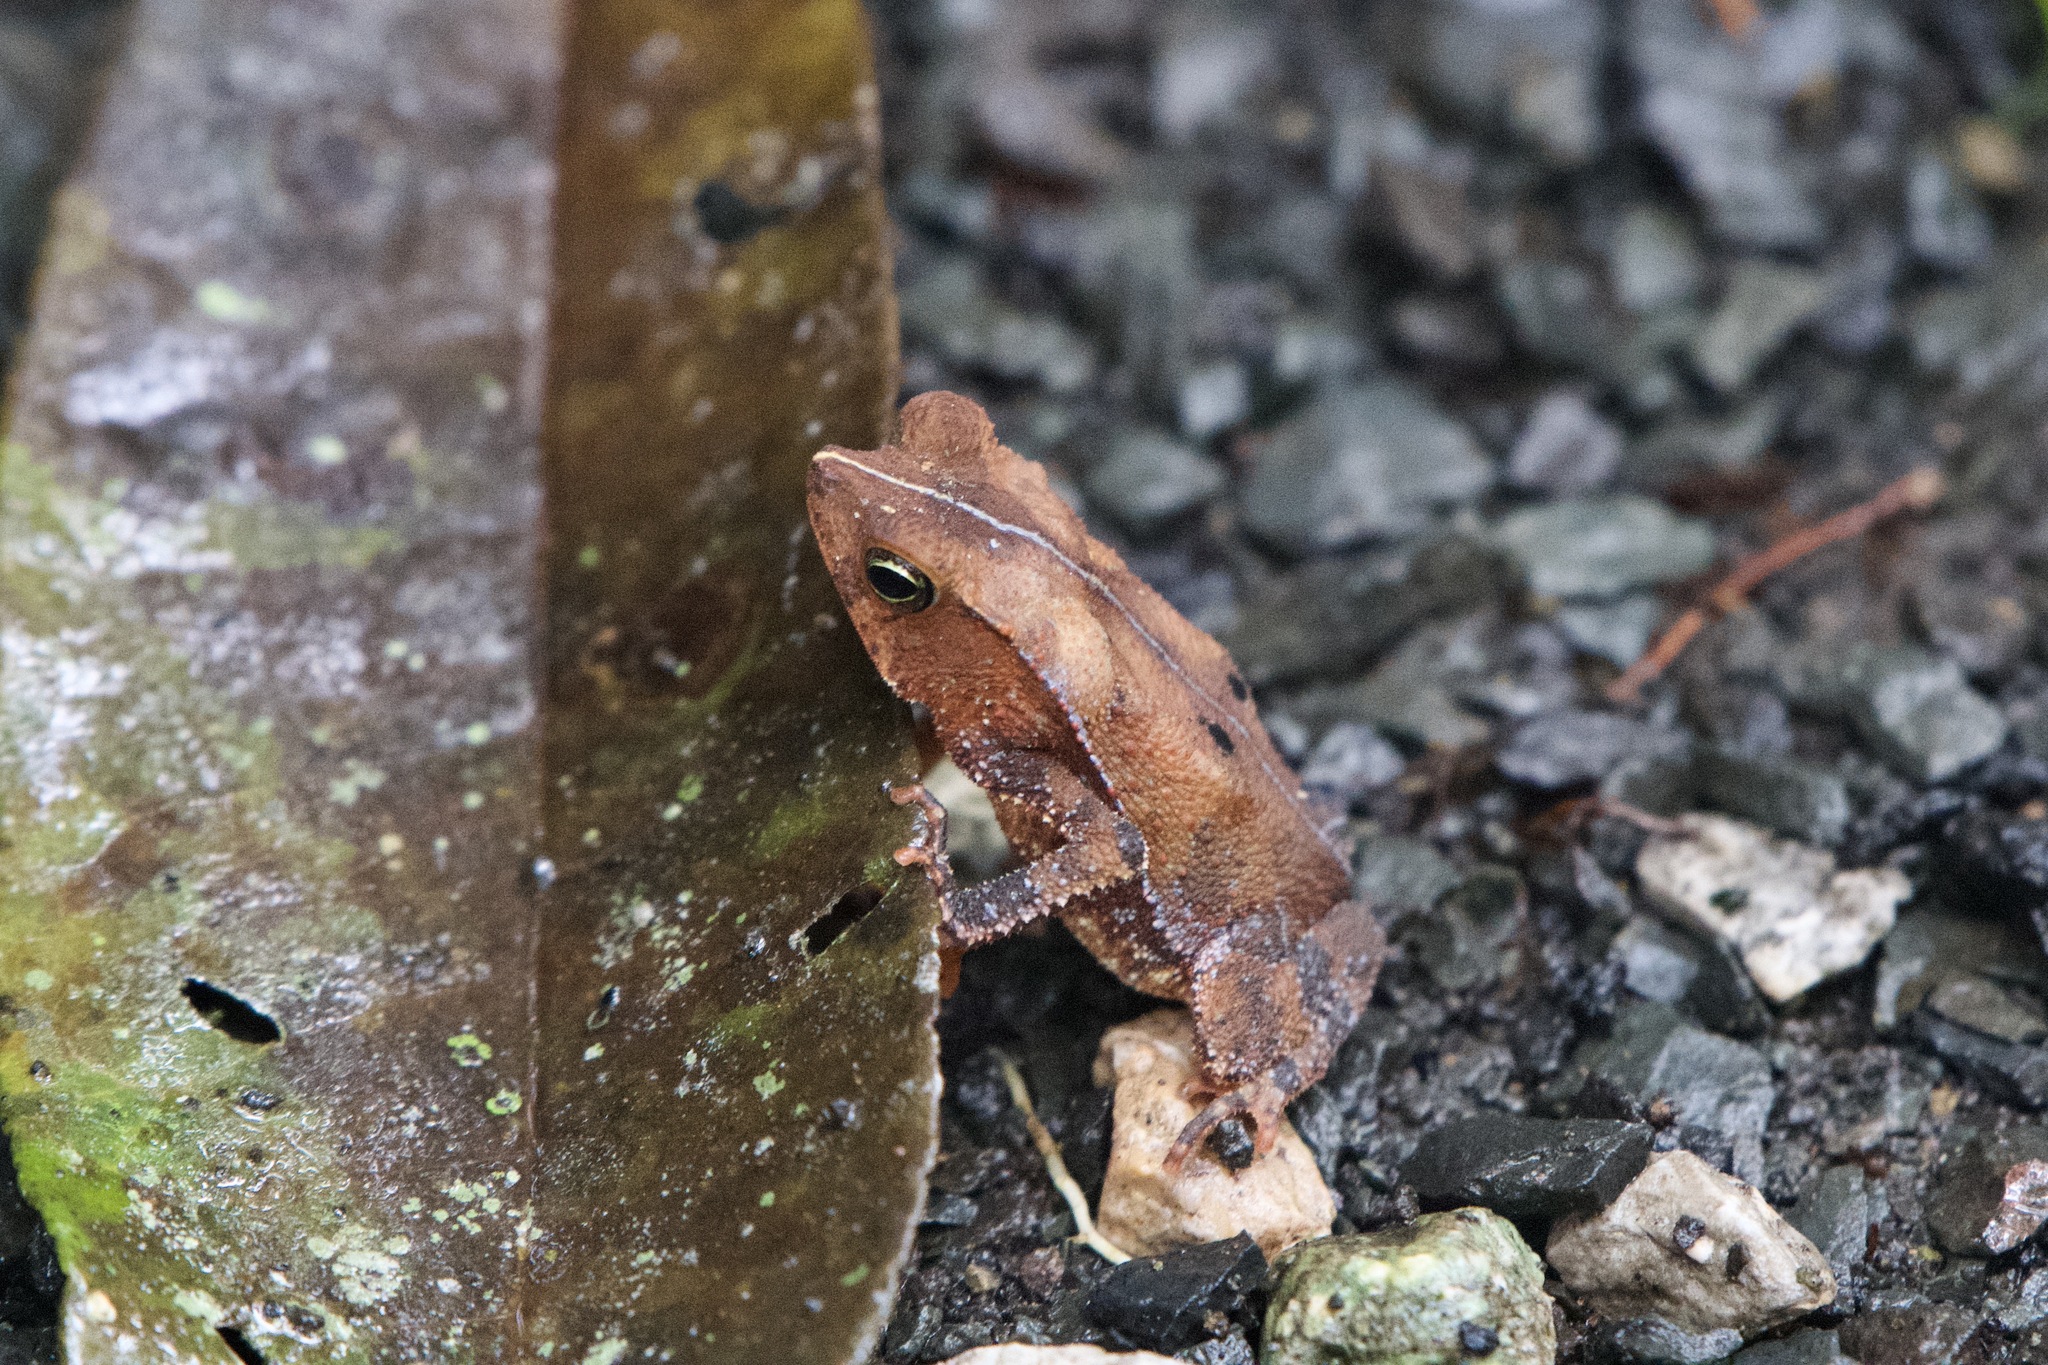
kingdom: Animalia
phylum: Chordata
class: Amphibia
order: Anura
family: Bufonidae
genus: Rhinella
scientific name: Rhinella alata
